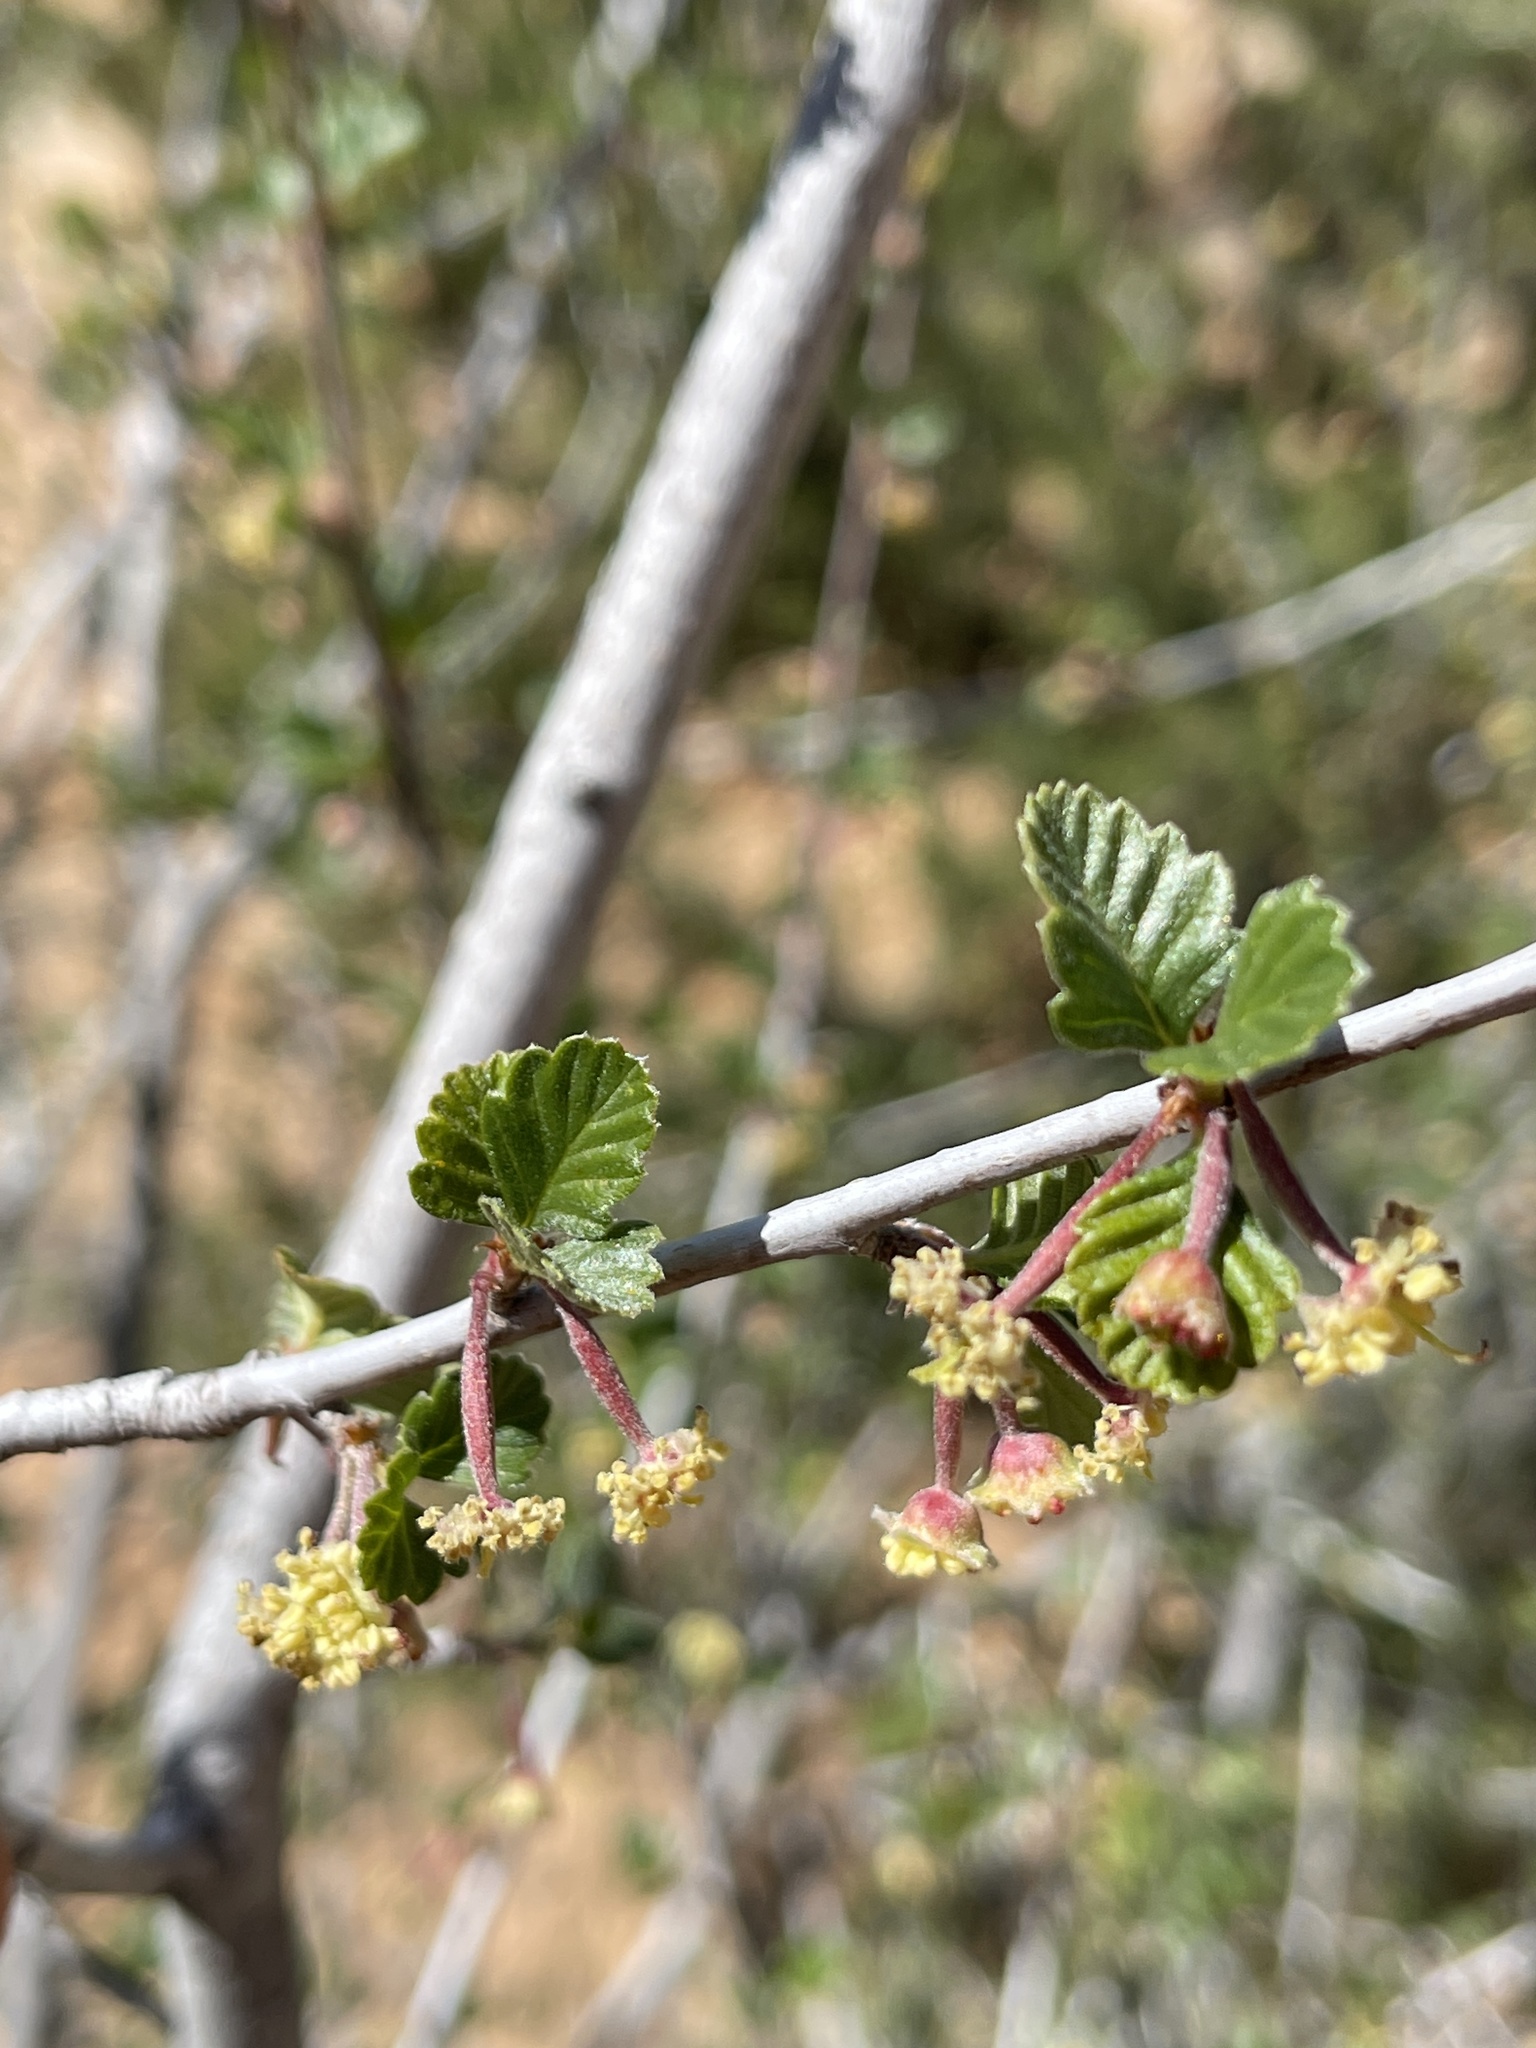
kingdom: Plantae
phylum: Tracheophyta
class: Magnoliopsida
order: Rosales
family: Rosaceae
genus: Cercocarpus
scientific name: Cercocarpus montanus
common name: Alder-leaf cercocarpus
